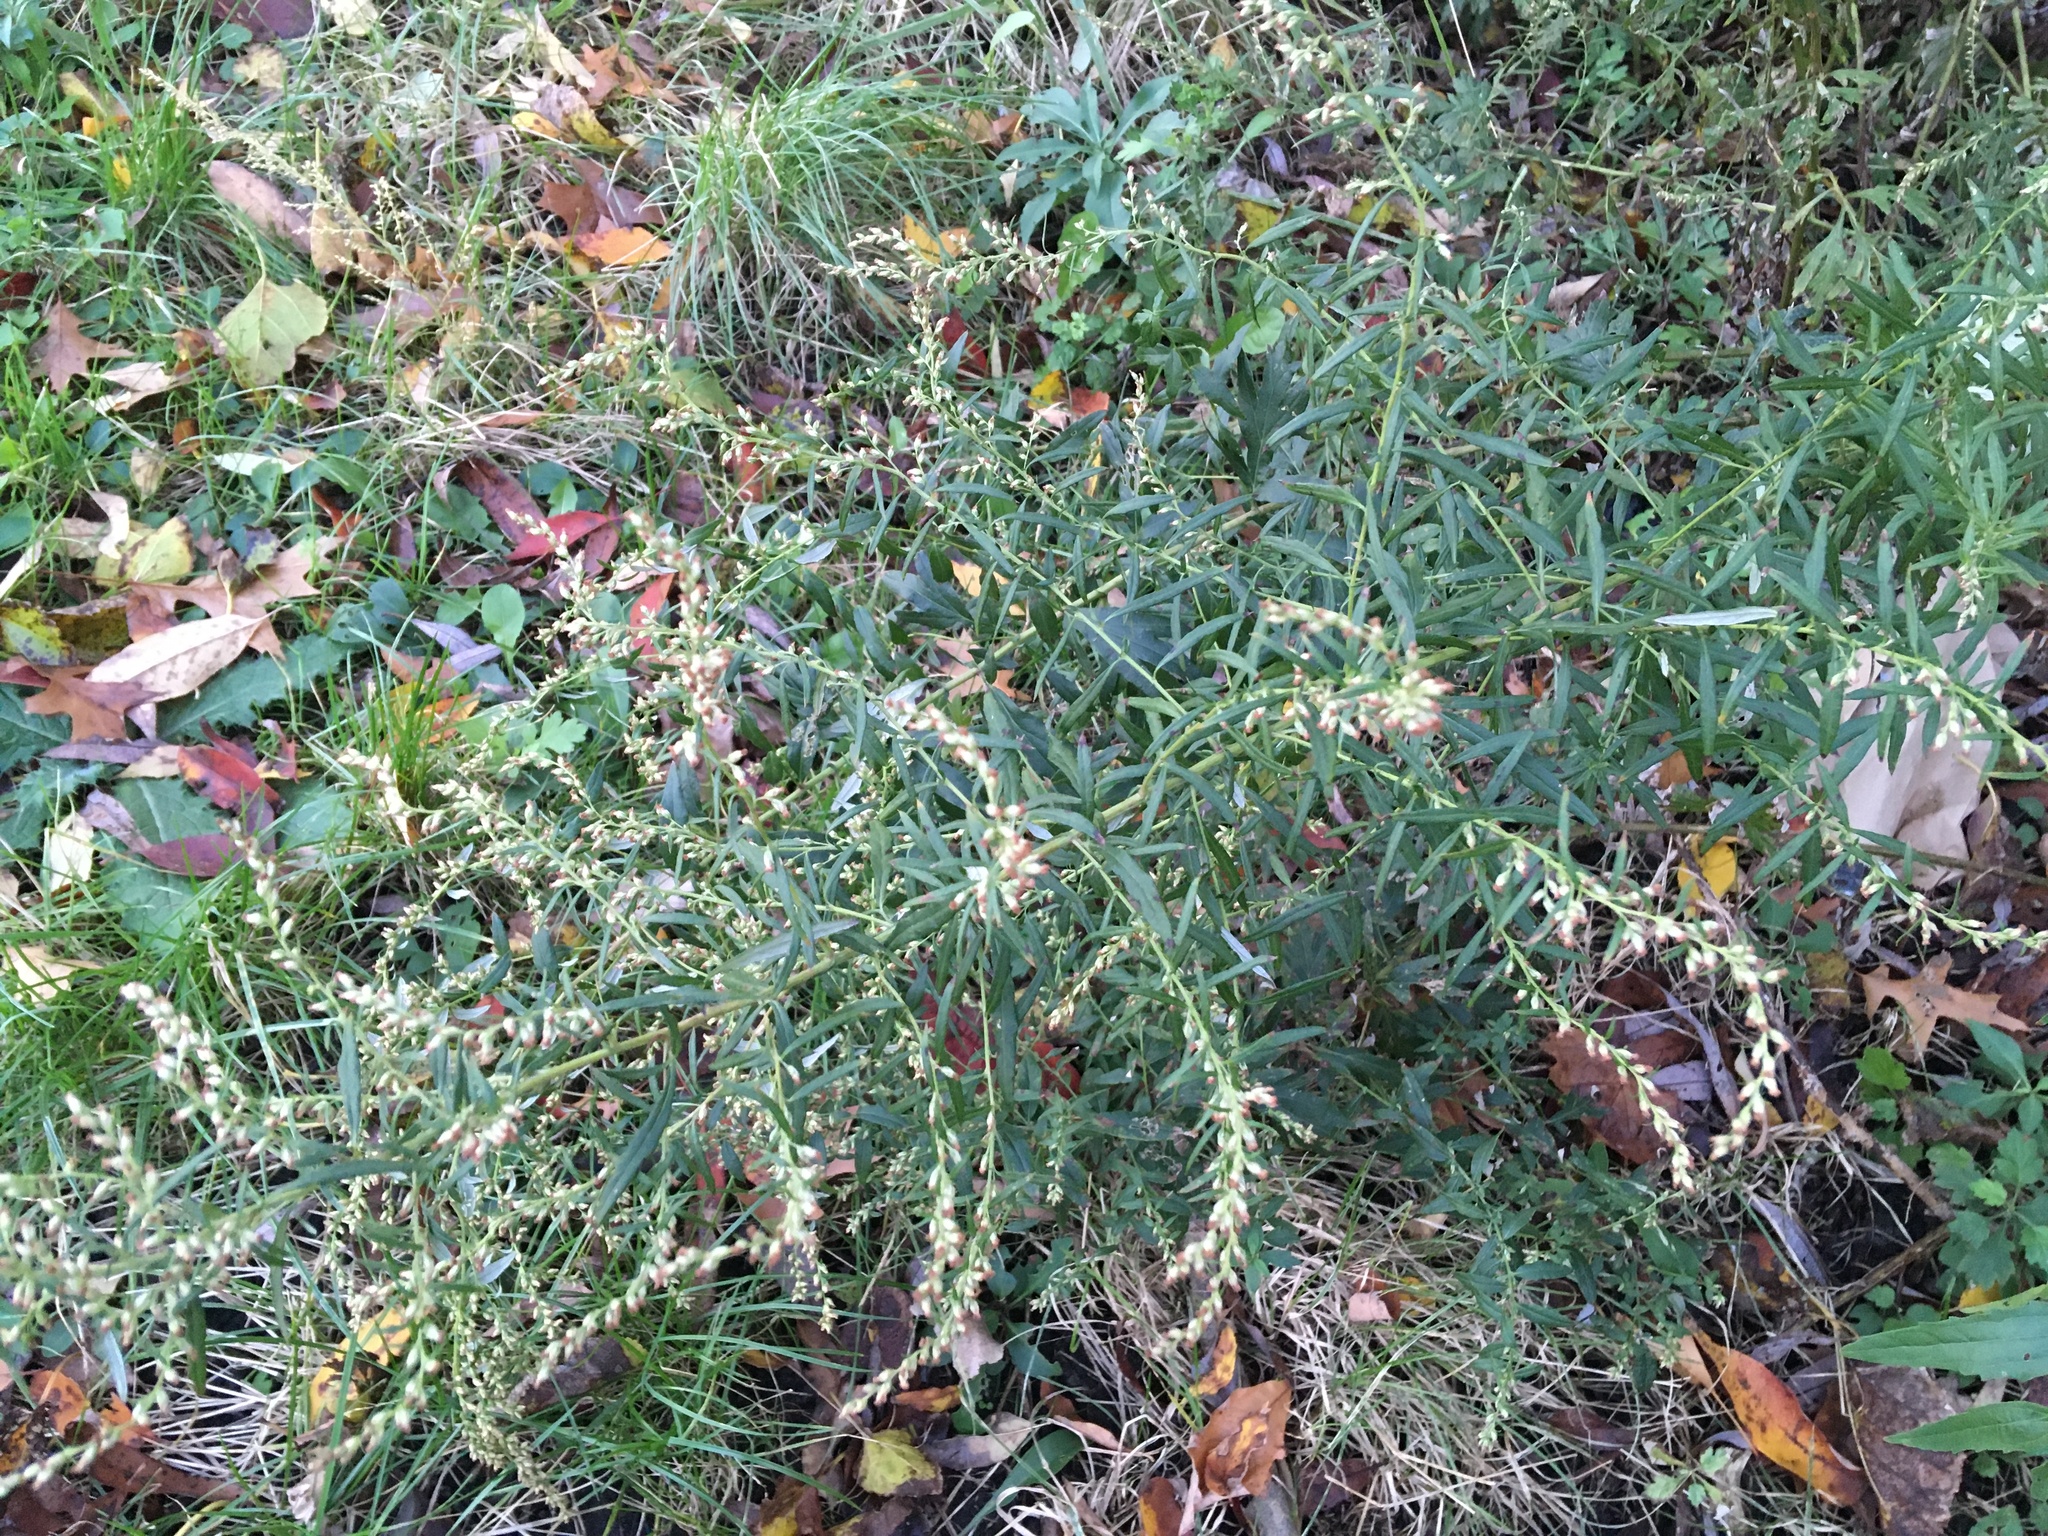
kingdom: Plantae
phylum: Tracheophyta
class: Magnoliopsida
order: Asterales
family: Asteraceae
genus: Artemisia
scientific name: Artemisia vulgaris
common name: Mugwort
